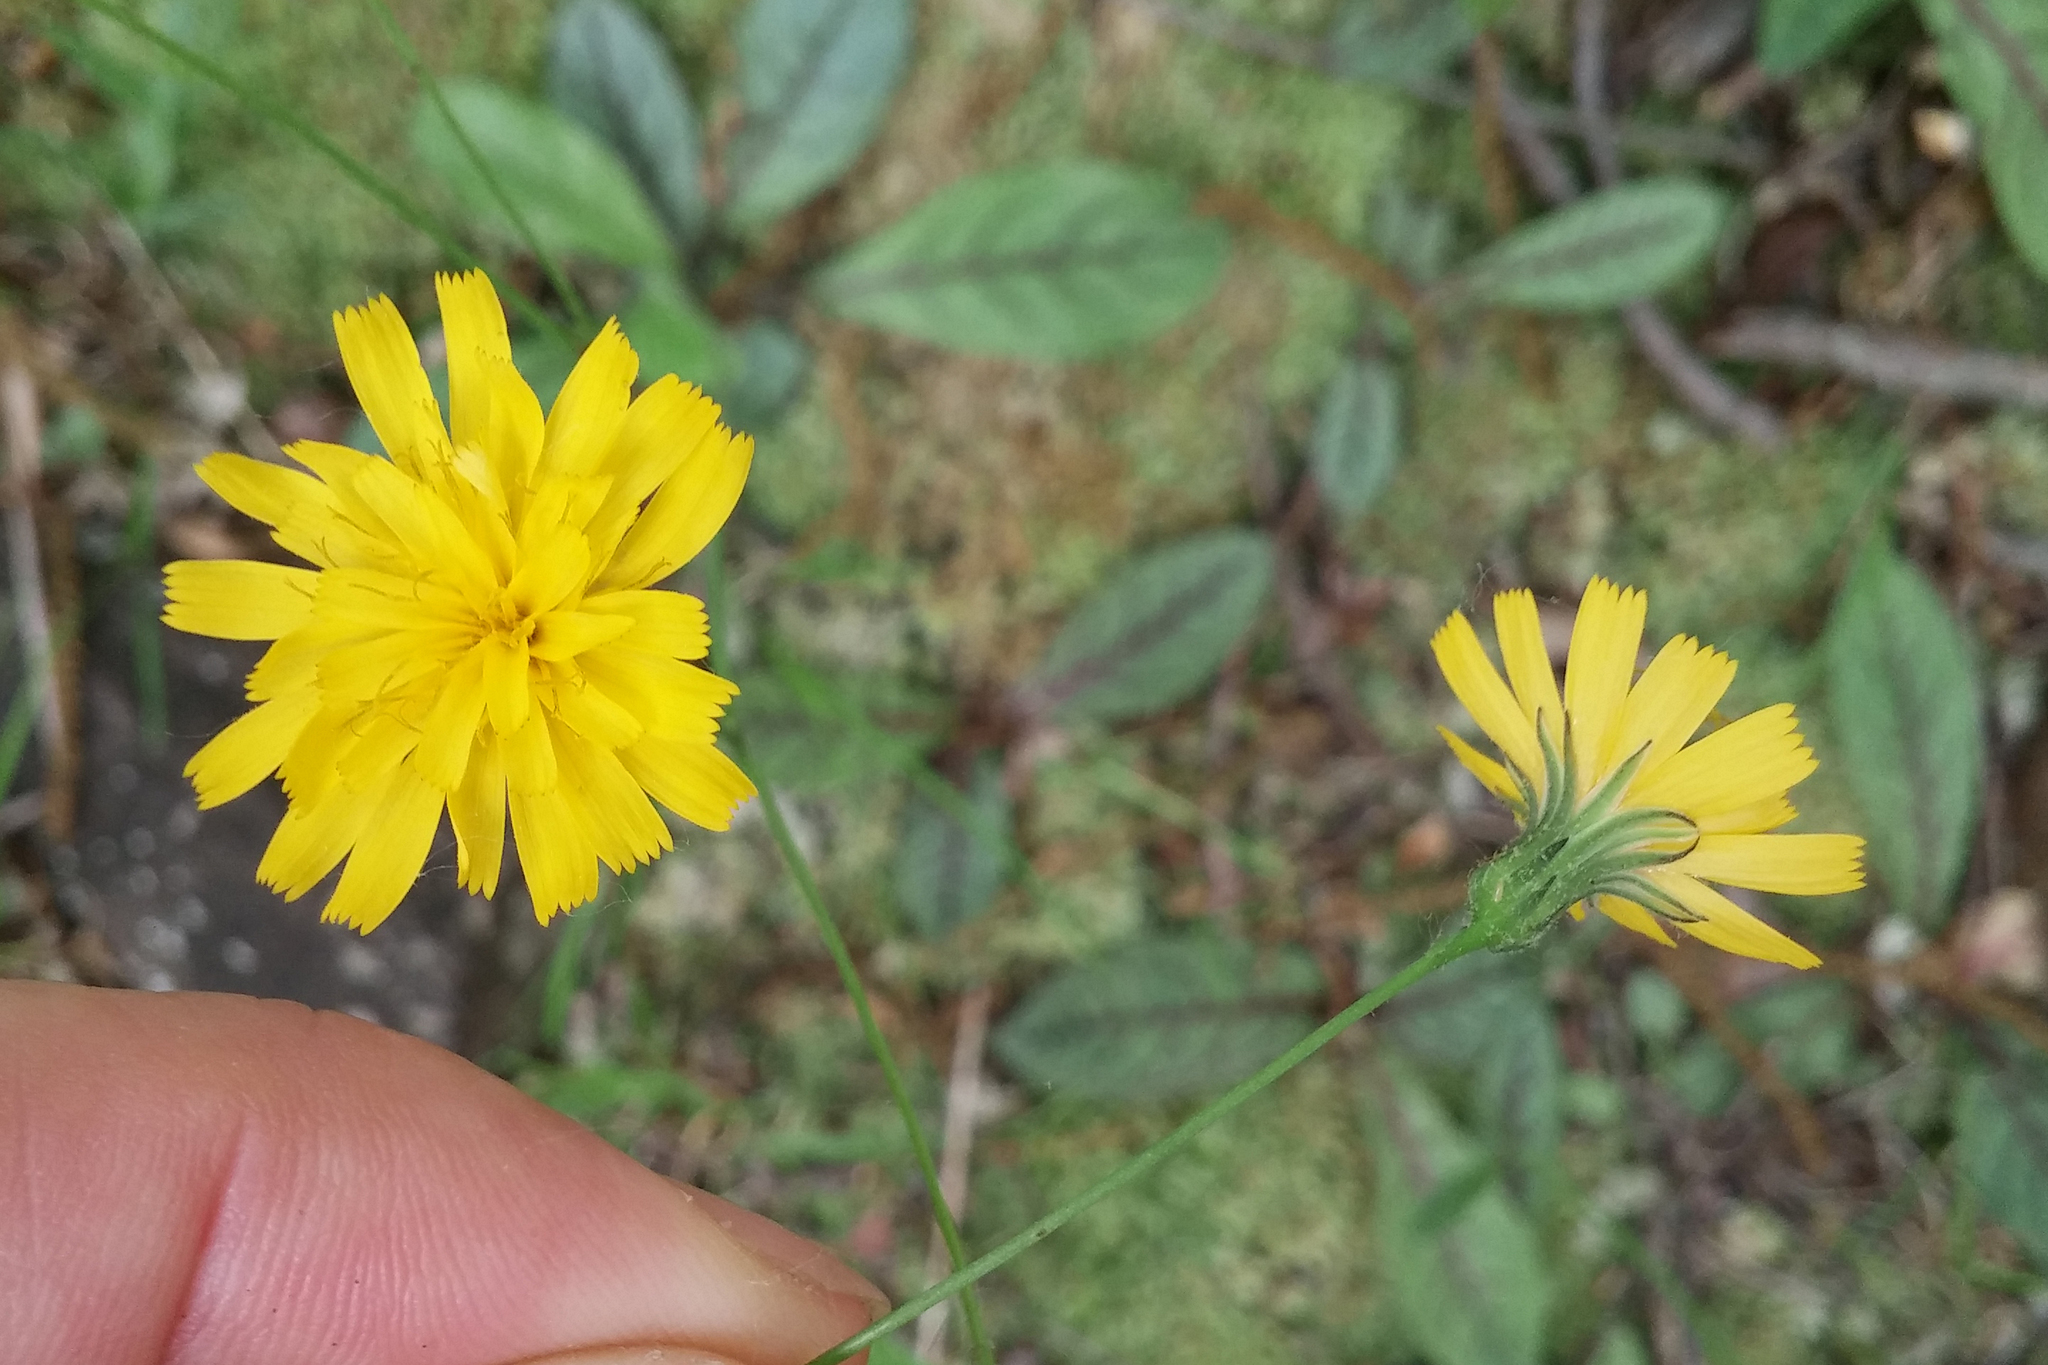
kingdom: Plantae
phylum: Tracheophyta
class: Magnoliopsida
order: Asterales
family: Asteraceae
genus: Hieracium
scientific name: Hieracium venosum
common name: Rattlesnake hawkweed
